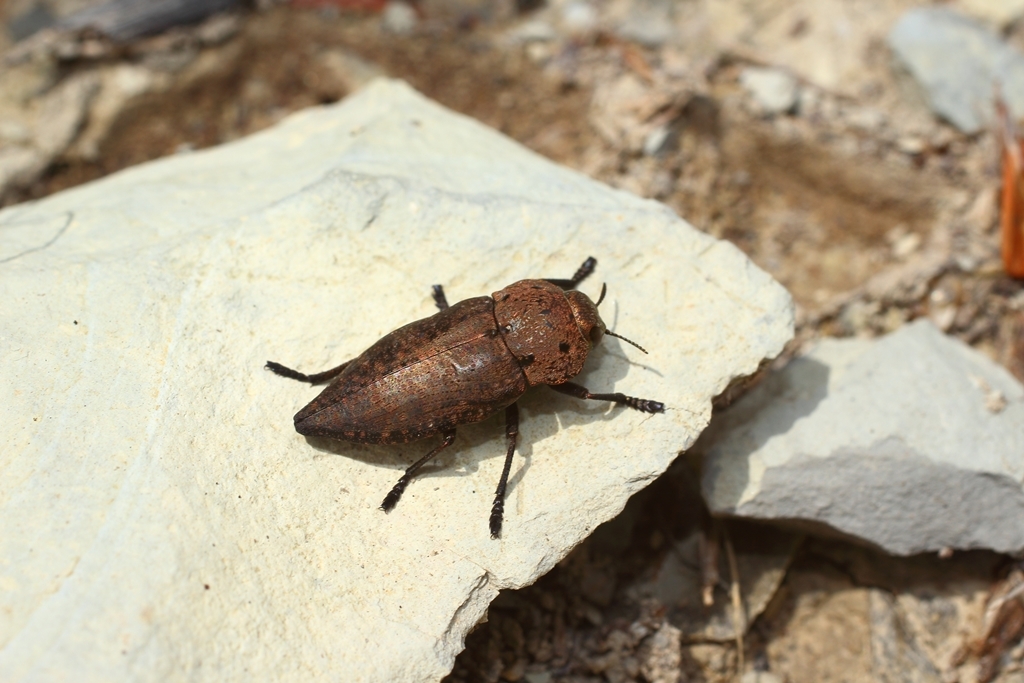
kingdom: Animalia
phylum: Arthropoda
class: Insecta
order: Coleoptera
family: Buprestidae
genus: Capnodis
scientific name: Capnodis tenebricosa
